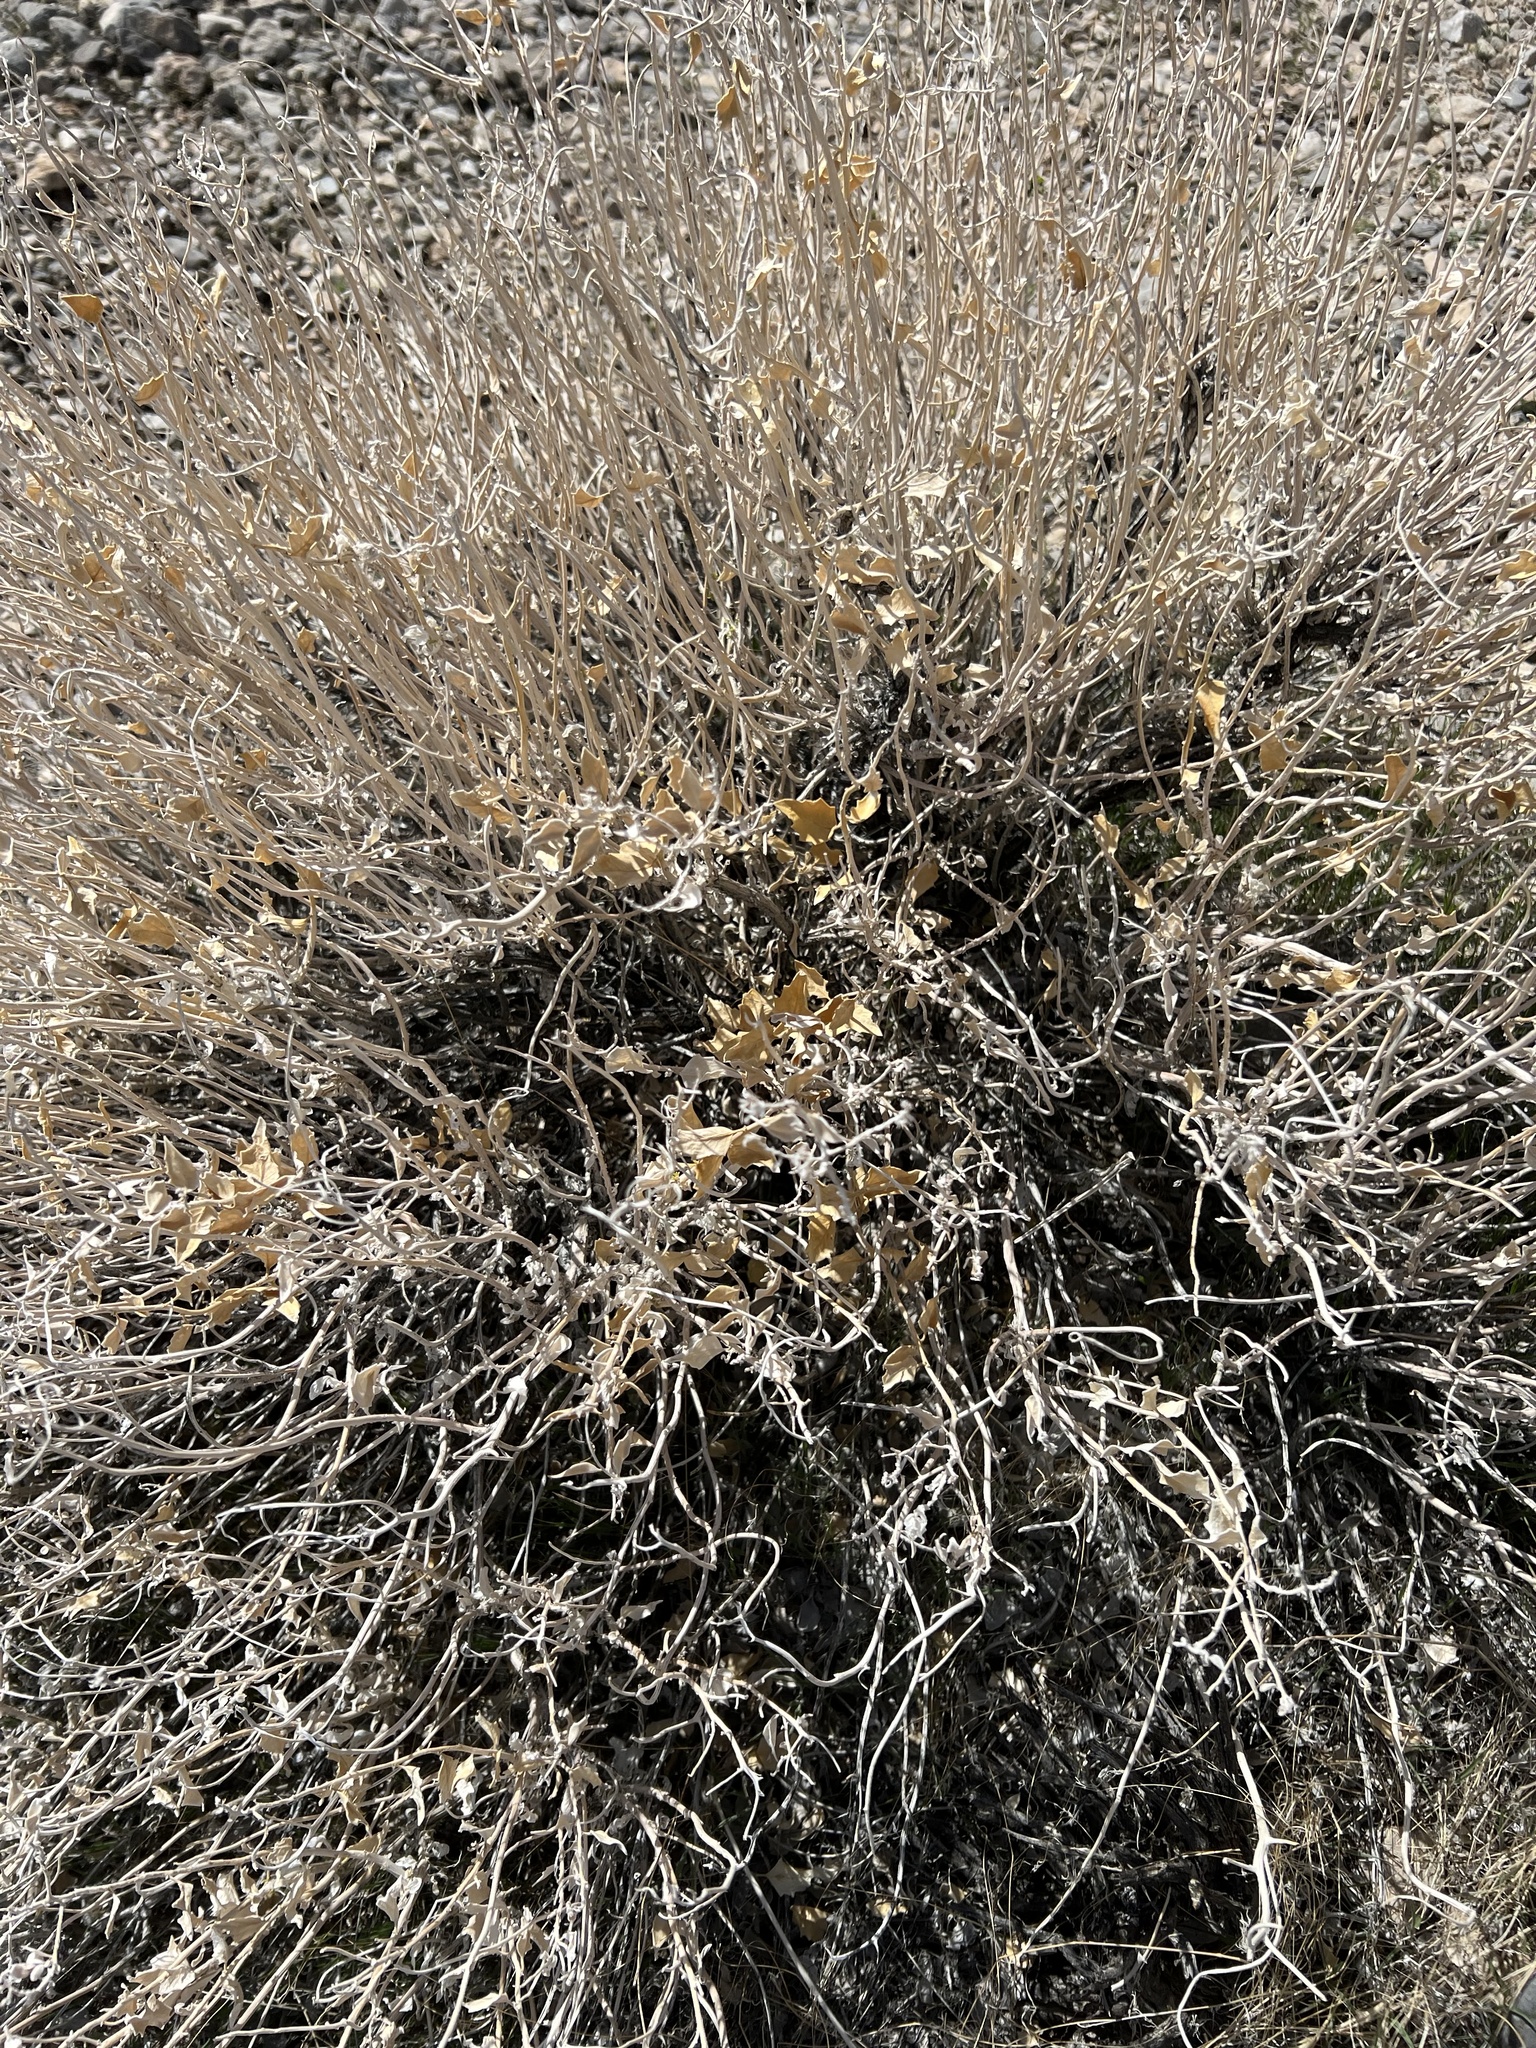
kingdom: Plantae
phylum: Tracheophyta
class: Magnoliopsida
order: Cornales
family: Loasaceae
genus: Petalonyx
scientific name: Petalonyx nitidus
